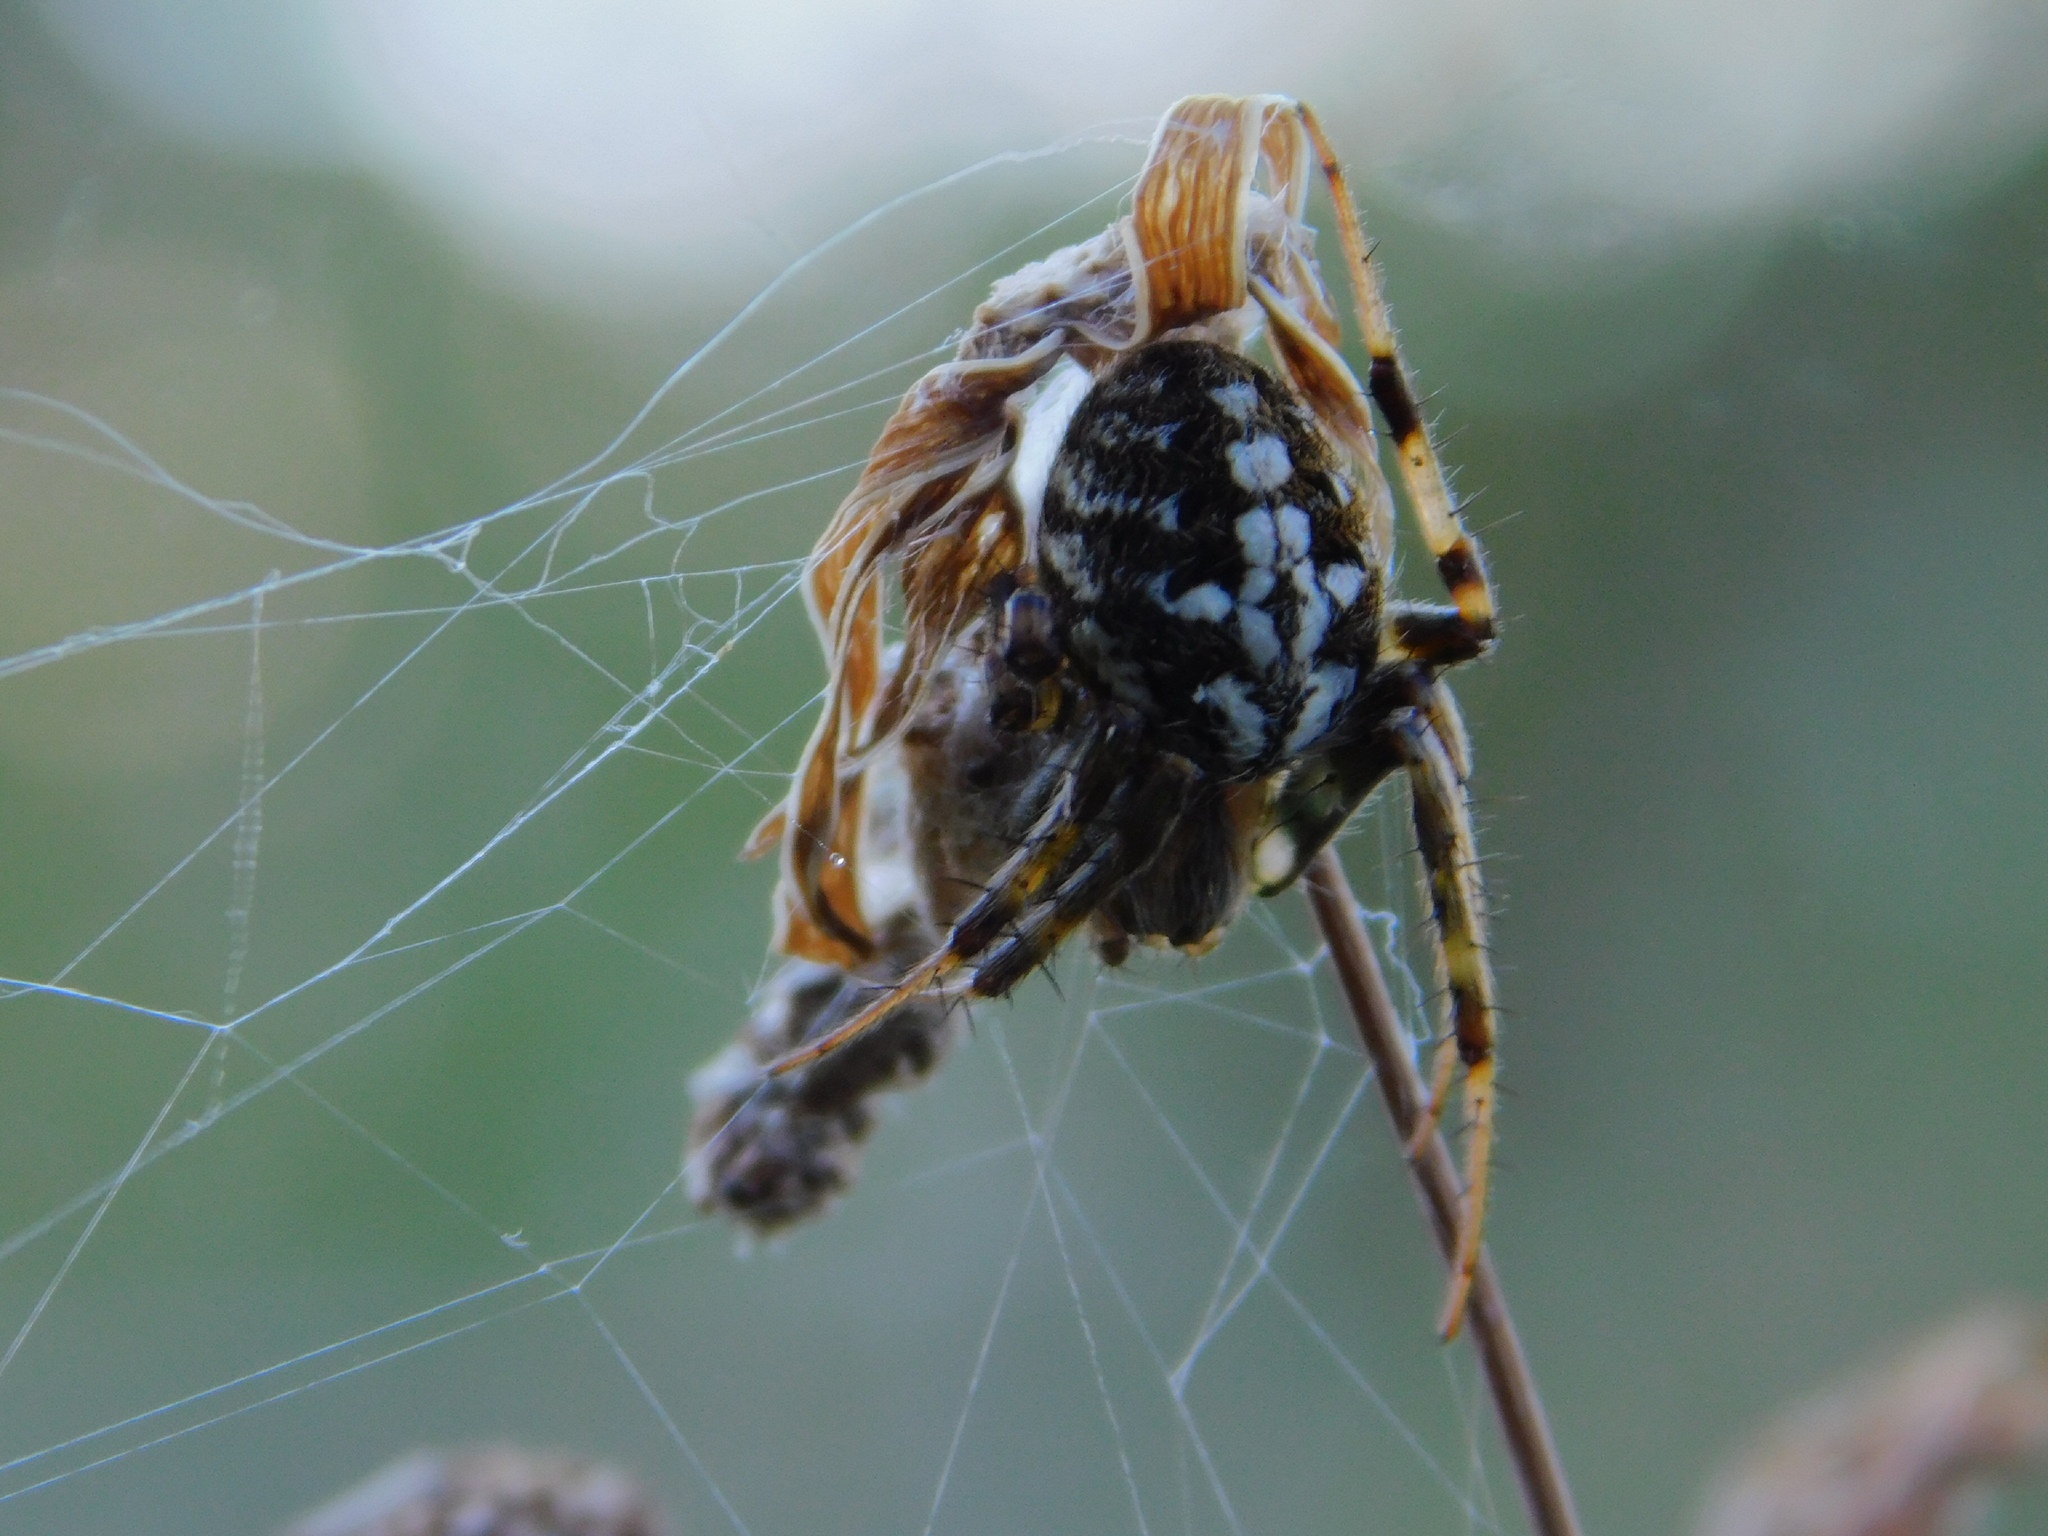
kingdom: Animalia
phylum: Arthropoda
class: Arachnida
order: Araneae
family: Araneidae
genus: Neoscona
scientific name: Neoscona arabesca
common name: Orb weavers
